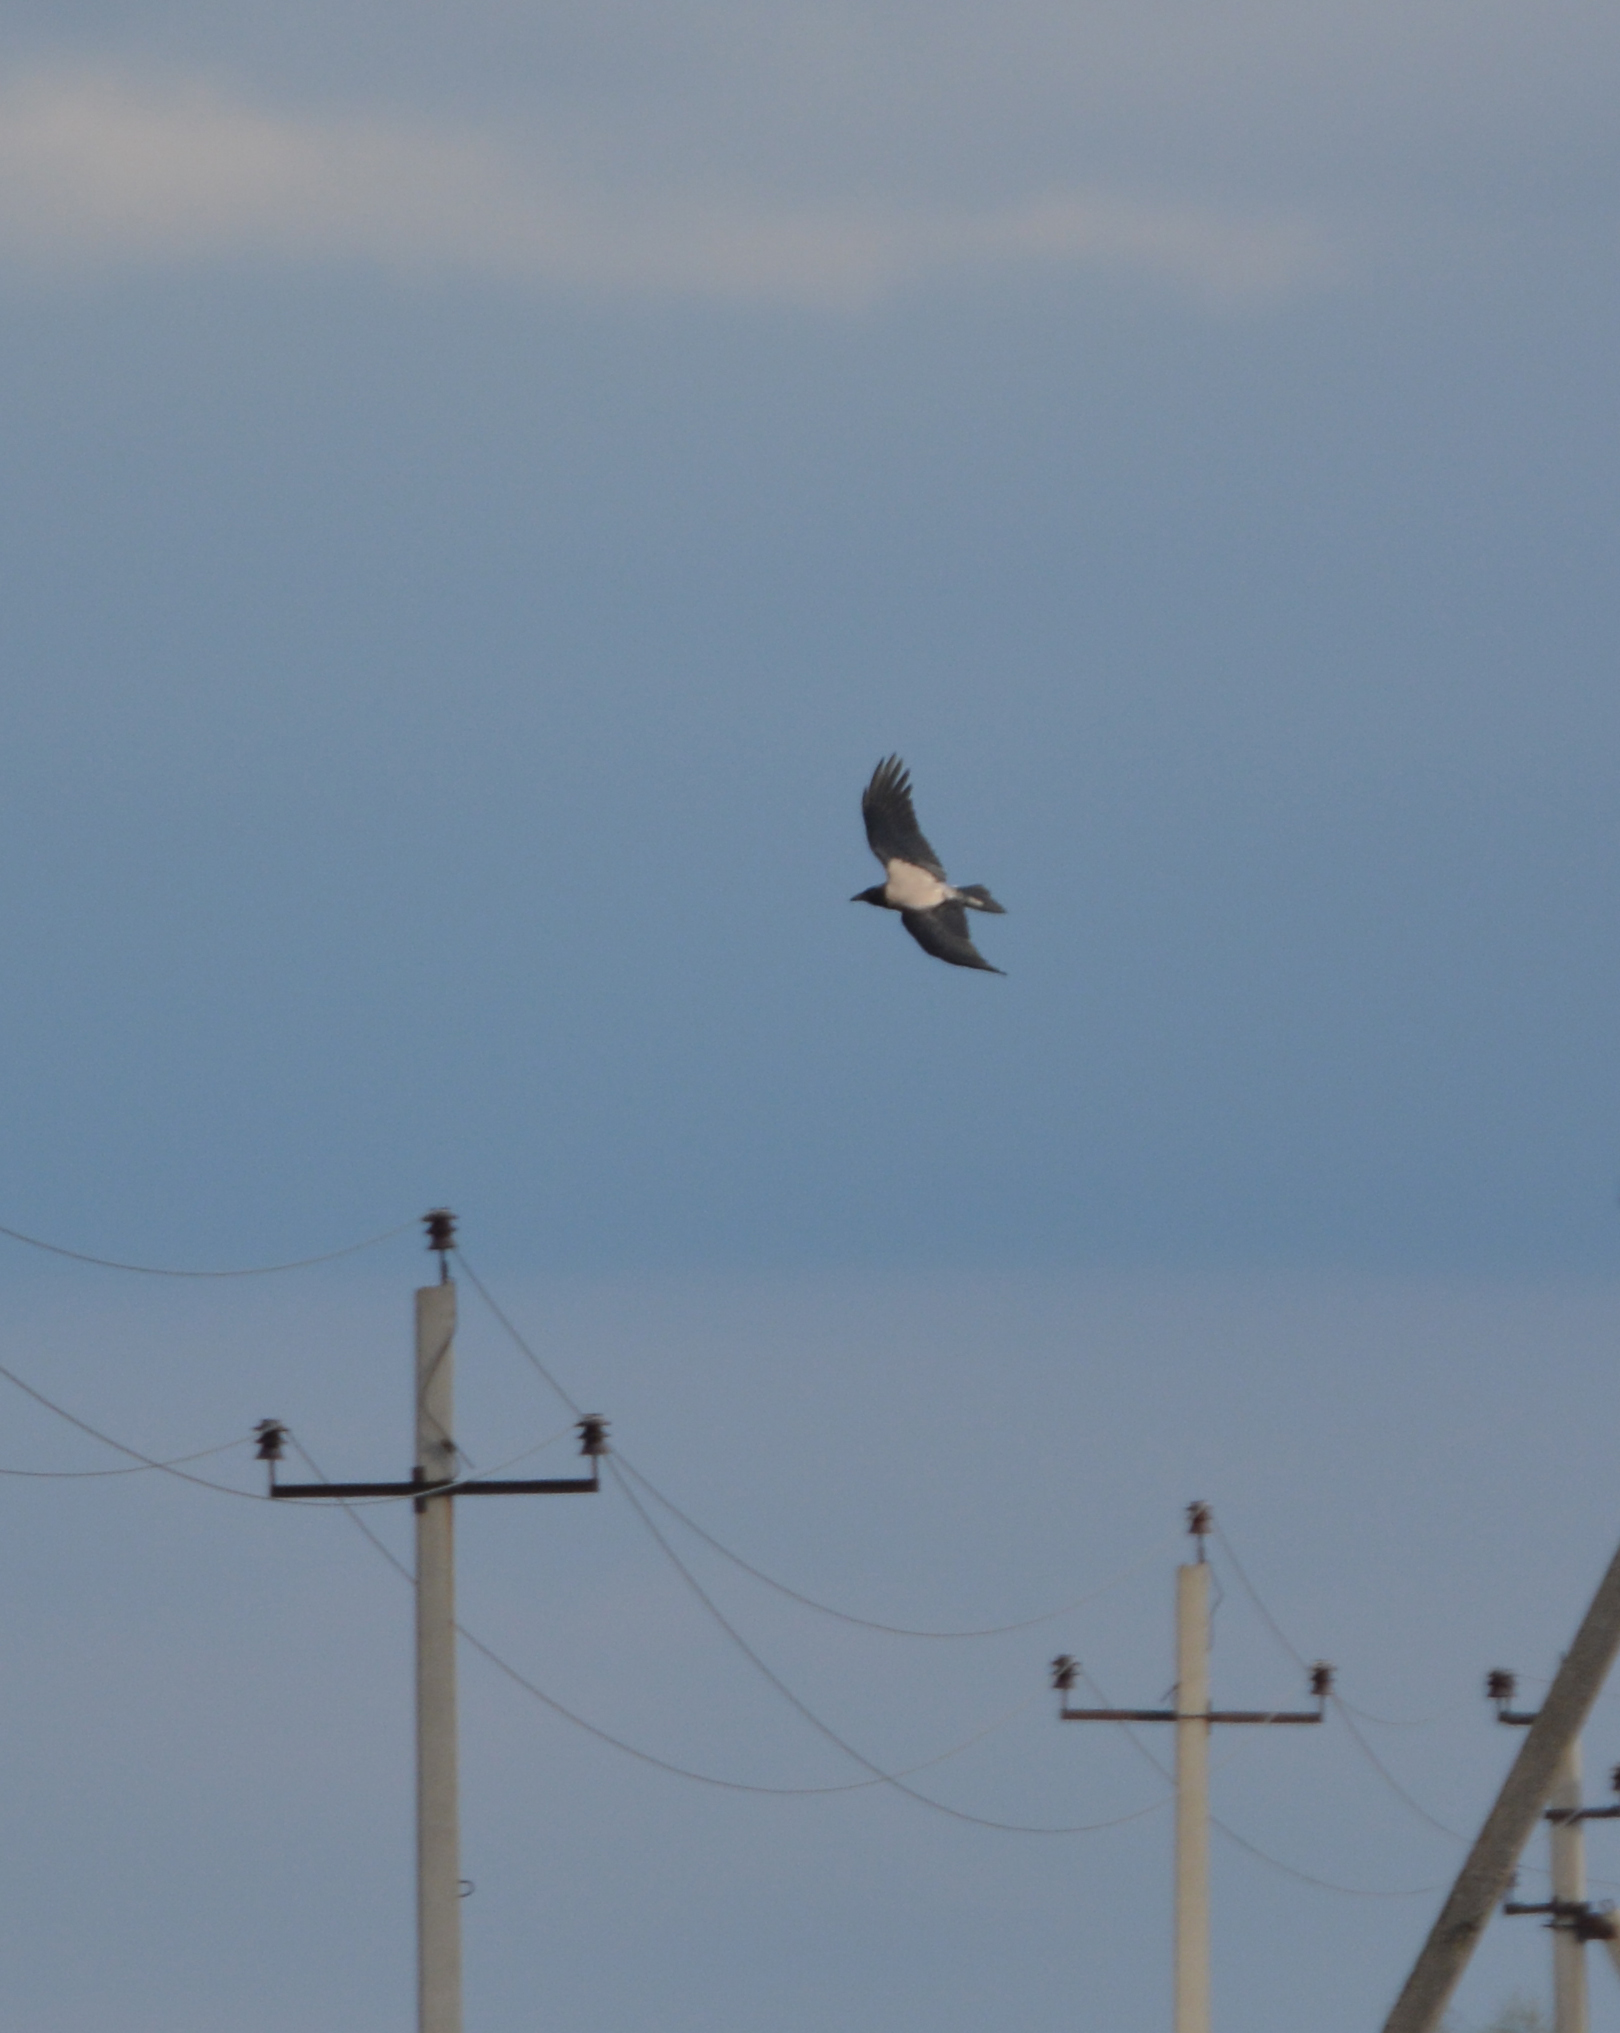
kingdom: Animalia
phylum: Chordata
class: Aves
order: Passeriformes
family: Corvidae
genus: Corvus
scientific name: Corvus cornix
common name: Hooded crow
